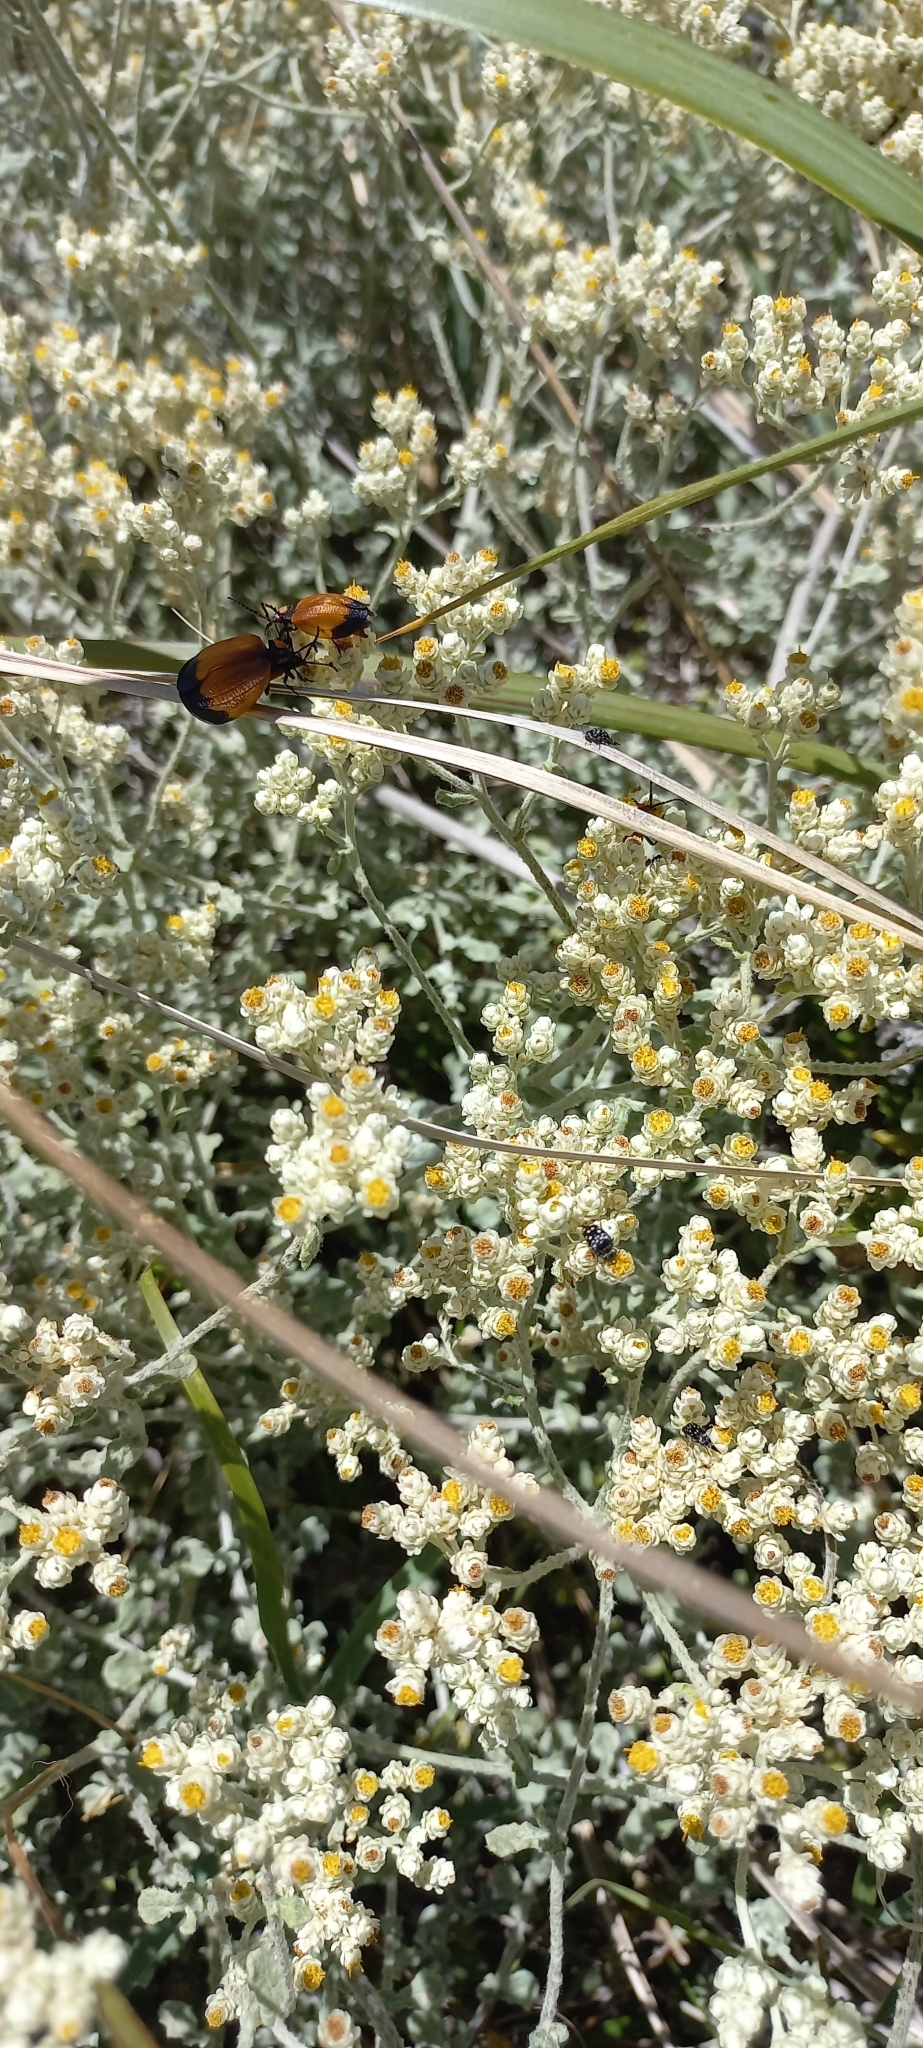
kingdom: Plantae
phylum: Tracheophyta
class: Magnoliopsida
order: Asterales
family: Asteraceae
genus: Helichrysum
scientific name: Helichrysum patulum
